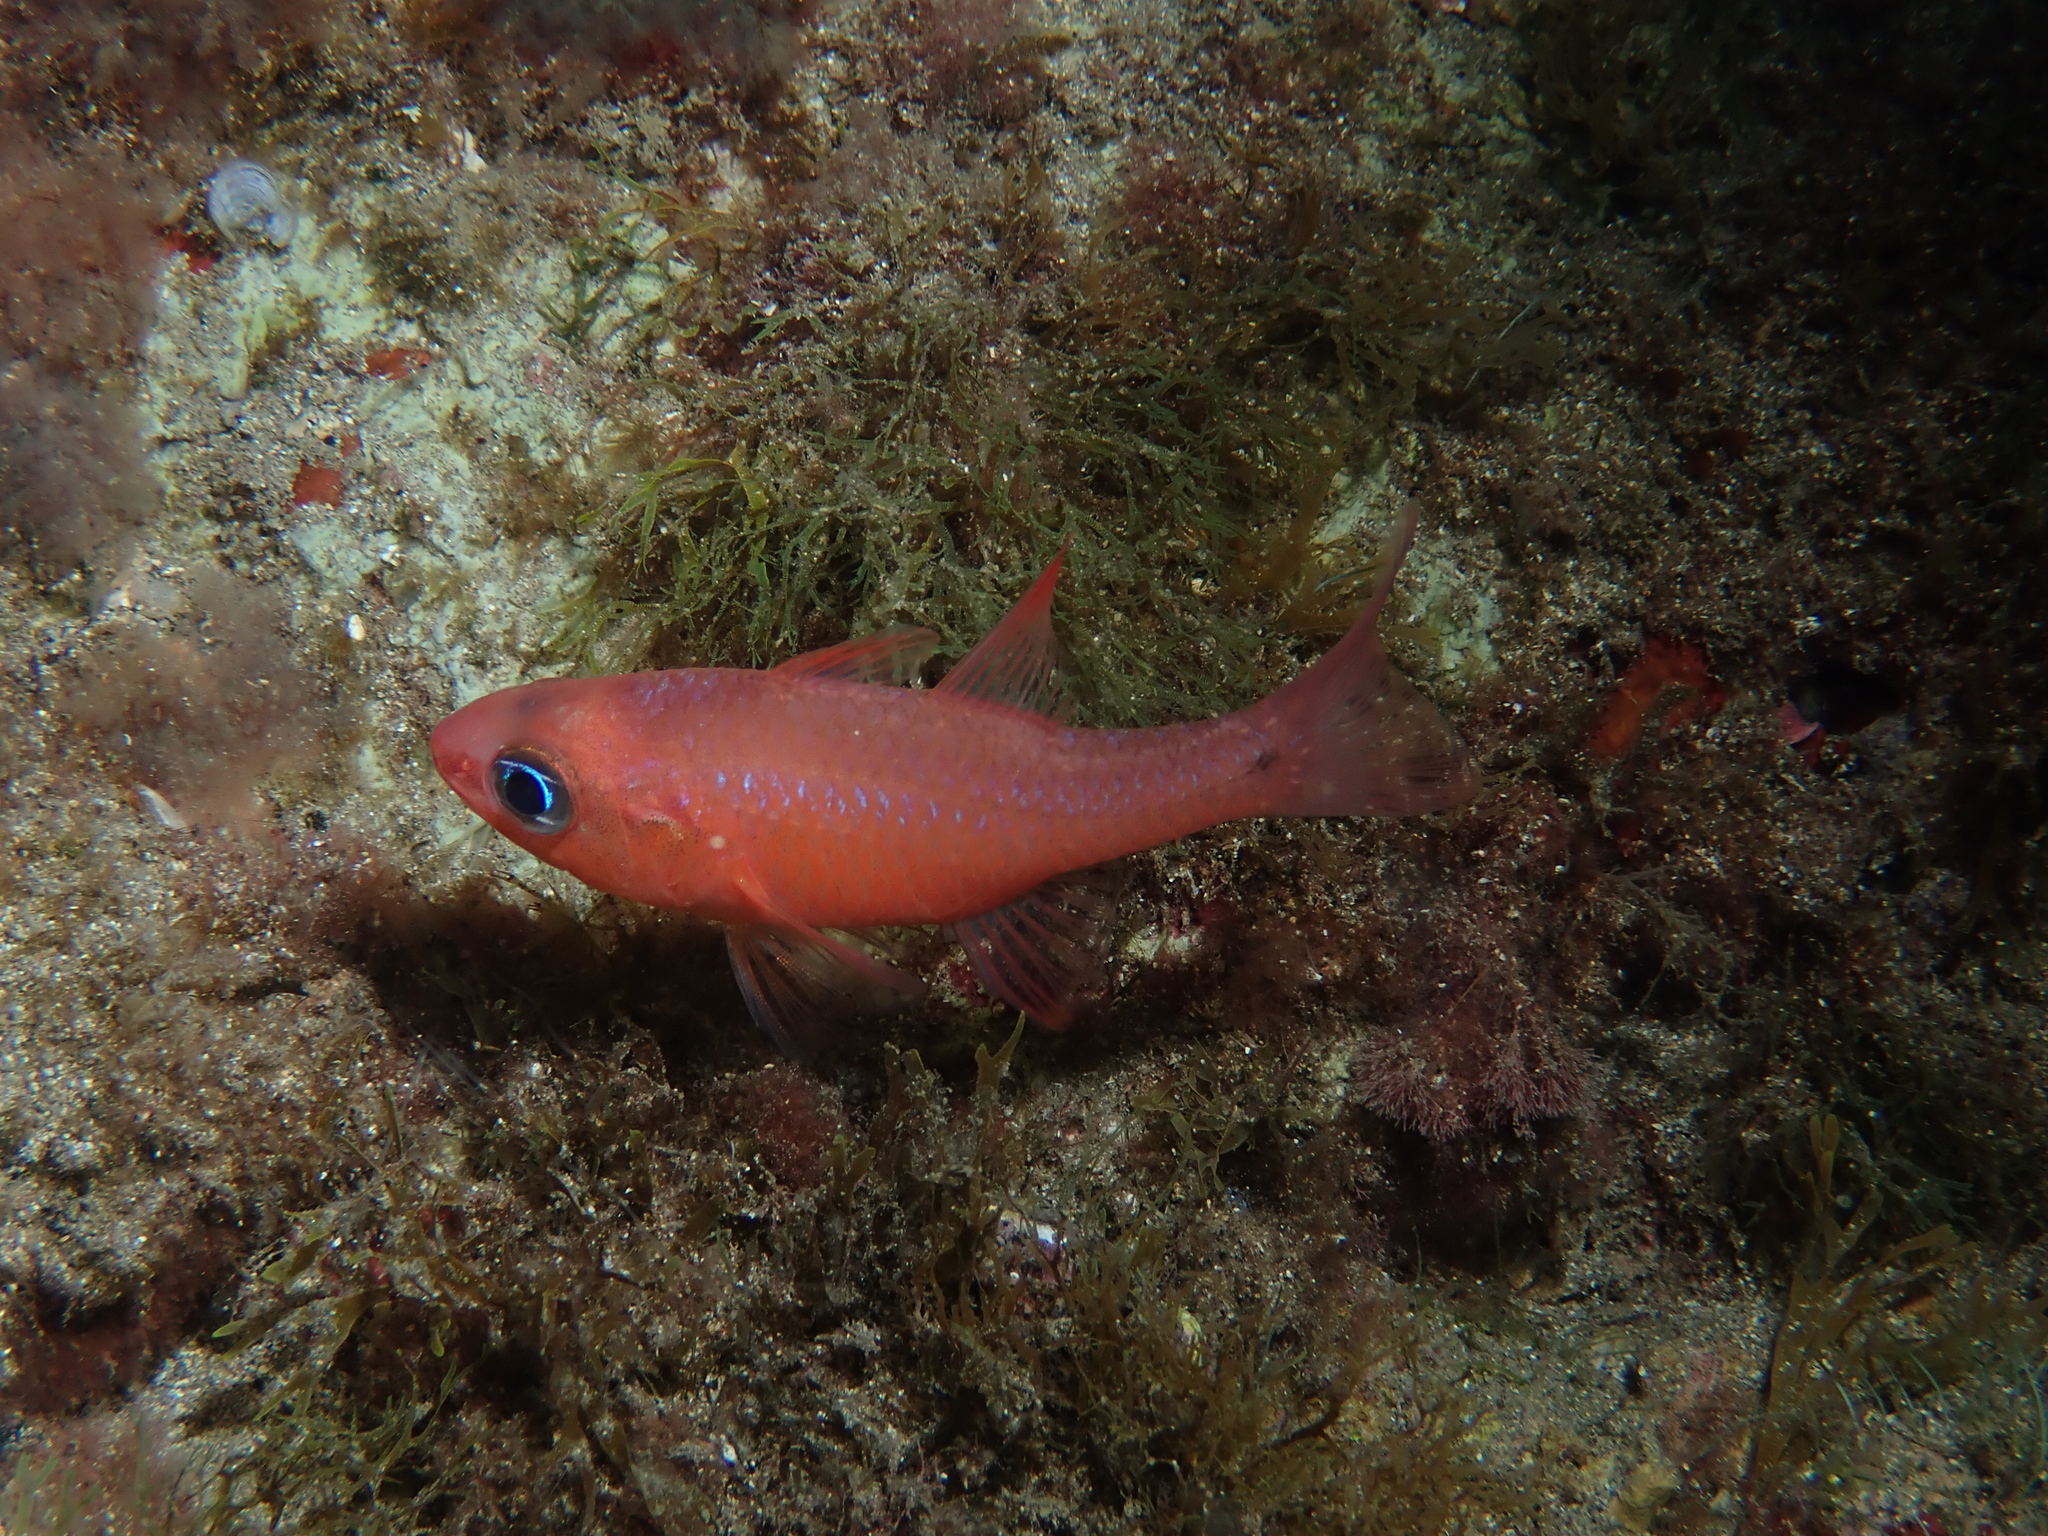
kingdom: Animalia
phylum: Chordata
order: Perciformes
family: Apogonidae
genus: Apogon
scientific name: Apogon imberbis
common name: Cardinal fish
